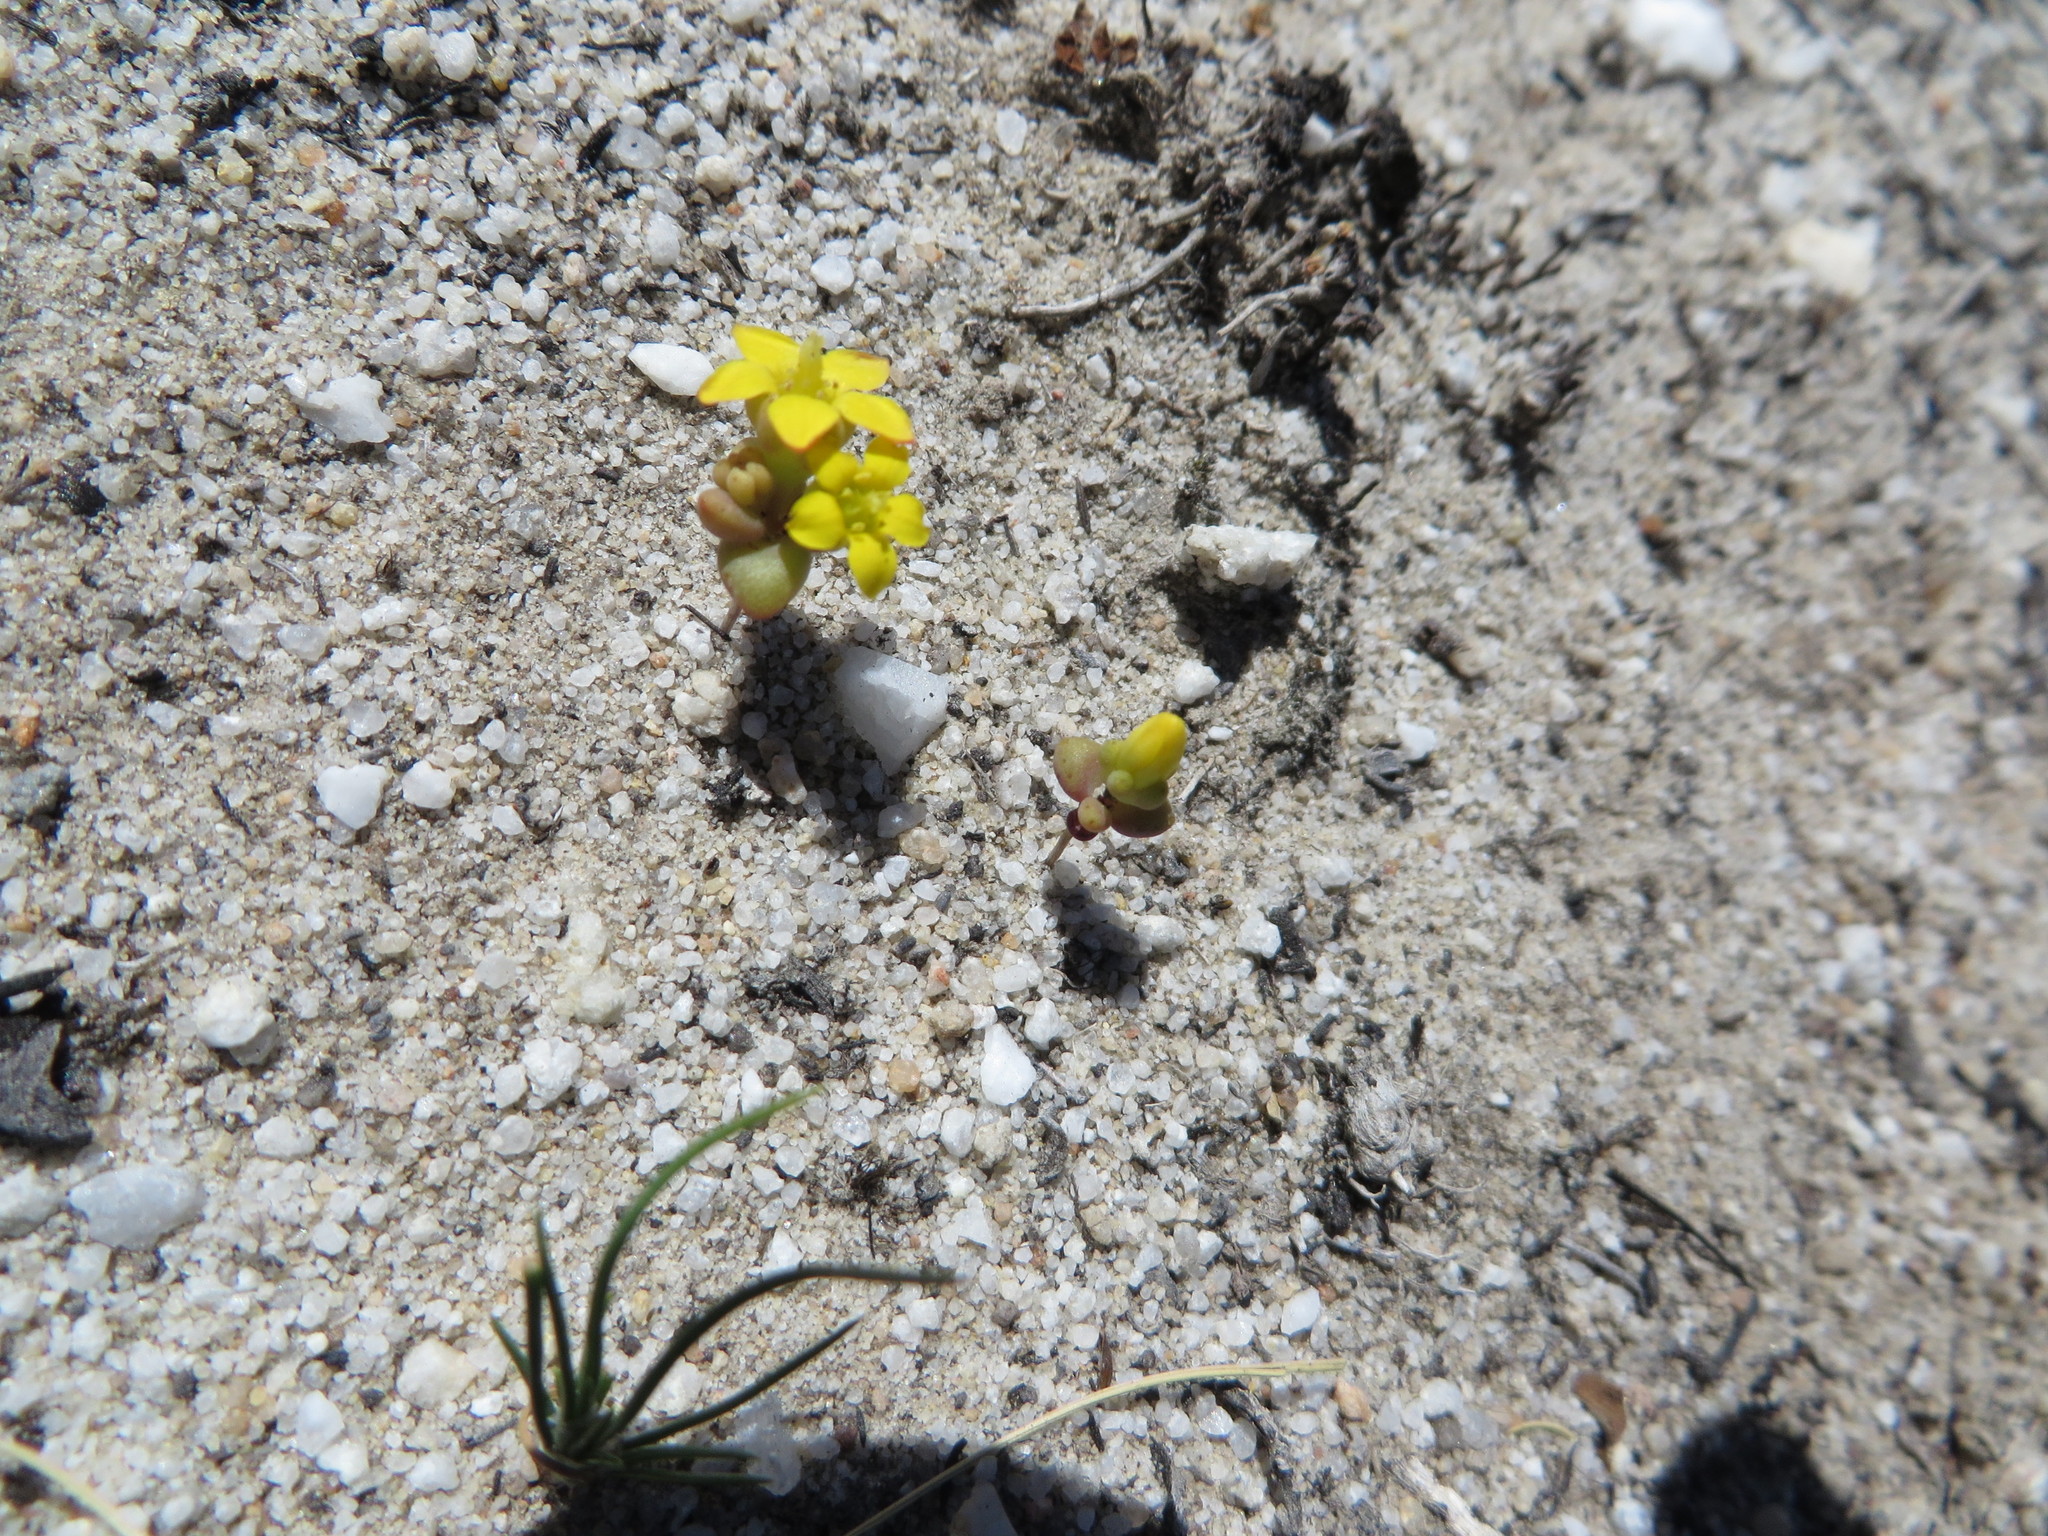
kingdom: Plantae
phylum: Tracheophyta
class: Magnoliopsida
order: Saxifragales
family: Crassulaceae
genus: Crassula
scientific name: Crassula sebaeoides
